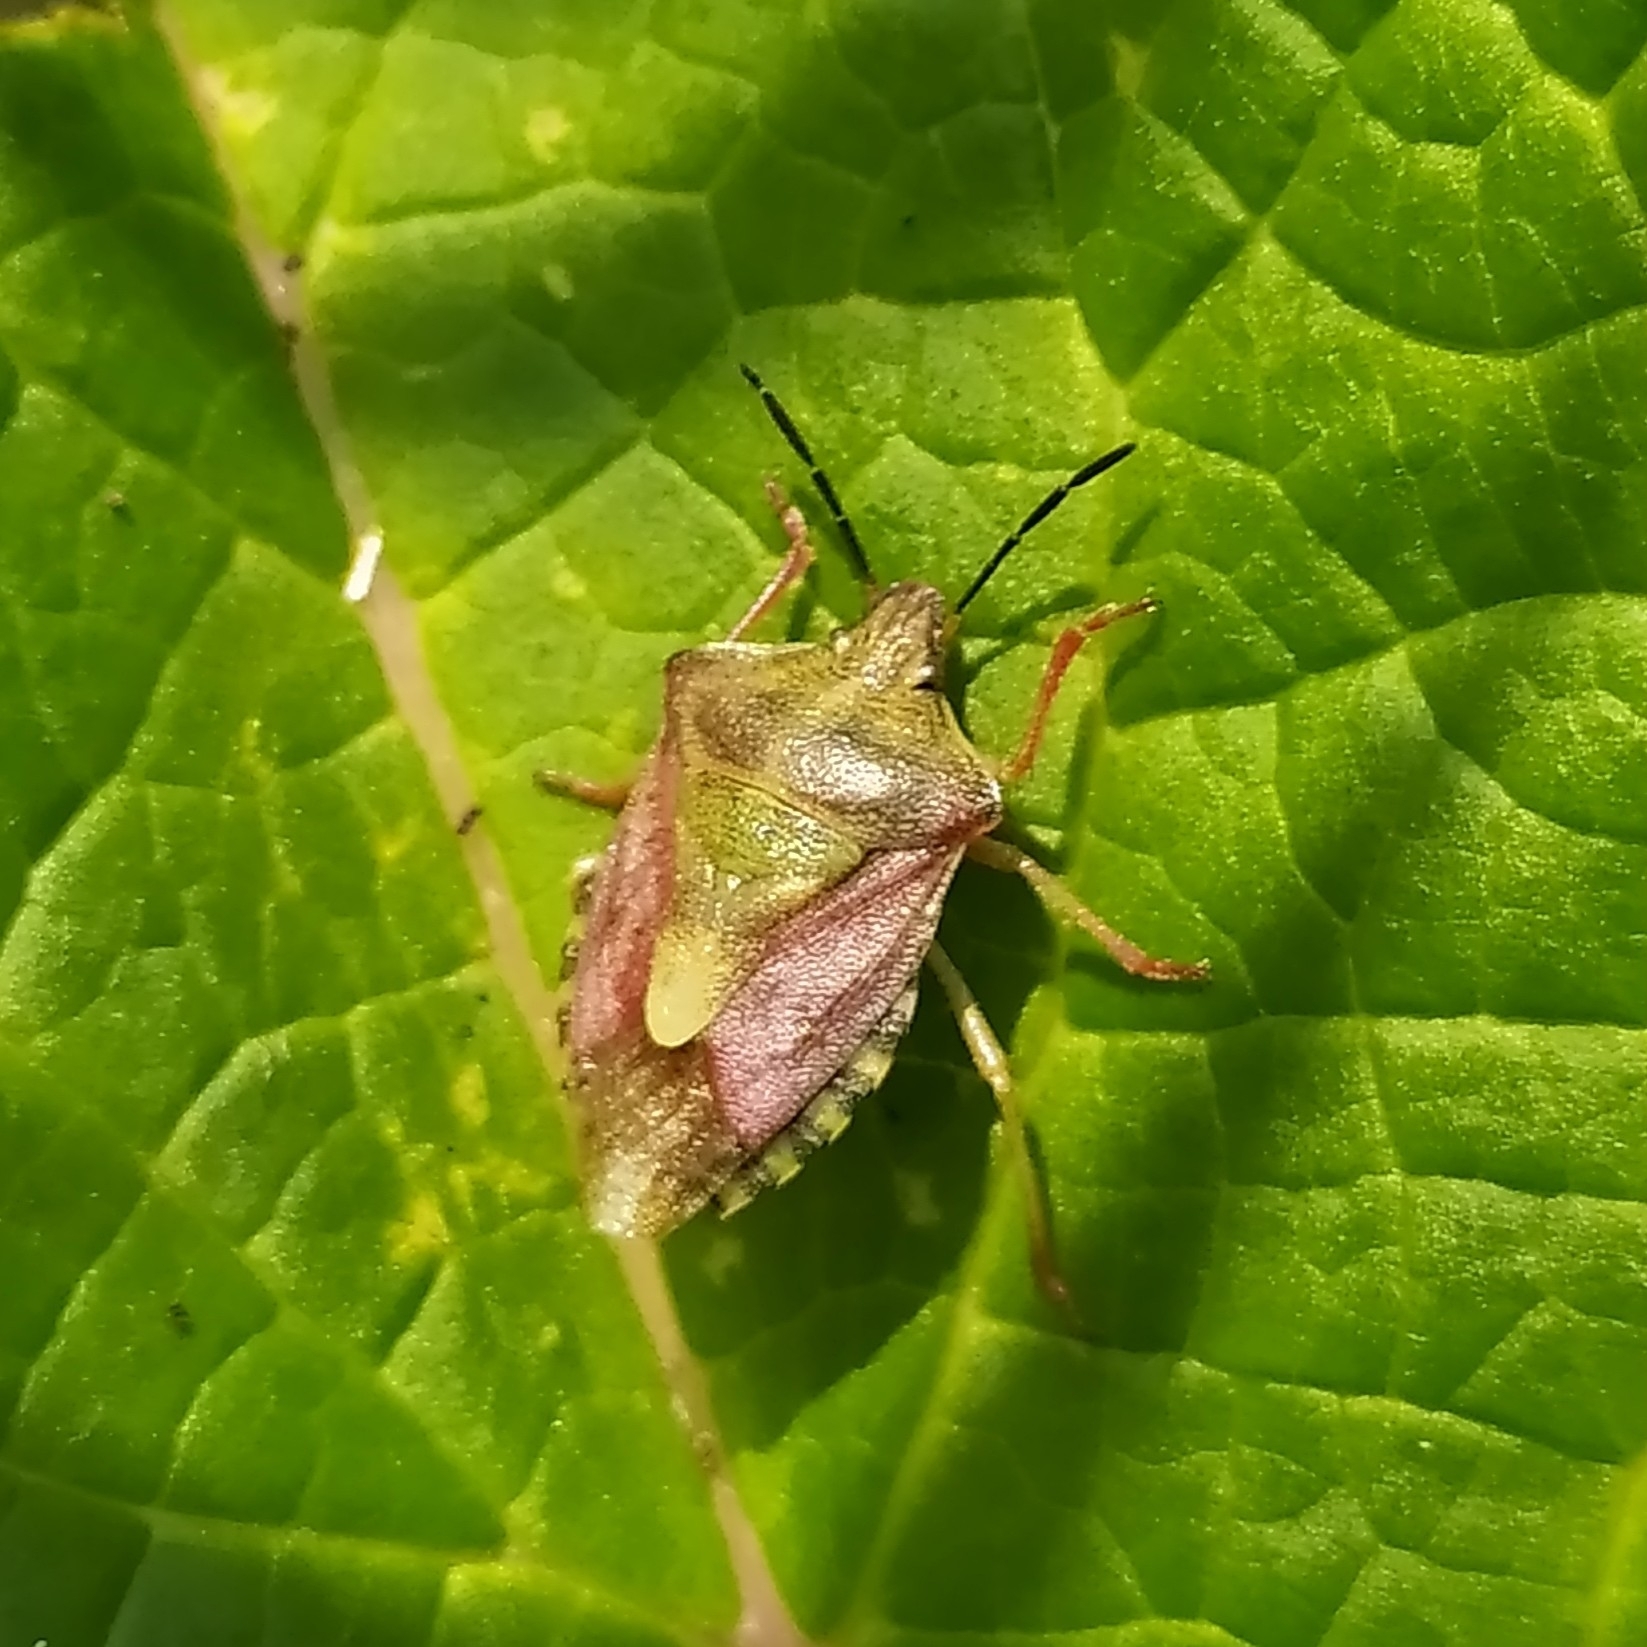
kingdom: Animalia
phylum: Arthropoda
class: Insecta
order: Hemiptera
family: Pentatomidae
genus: Carpocoris
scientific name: Carpocoris purpureipennis
